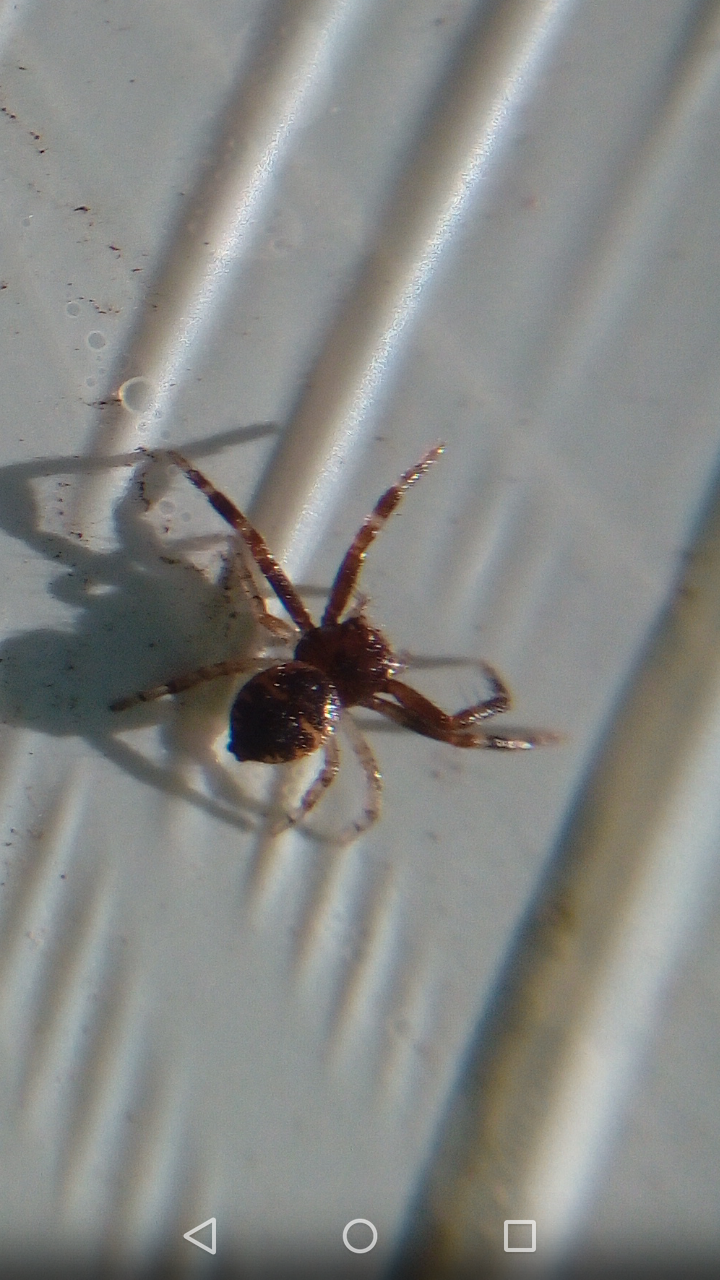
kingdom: Animalia
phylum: Arthropoda
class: Arachnida
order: Araneae
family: Thomisidae
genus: Synema
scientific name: Synema globosum
